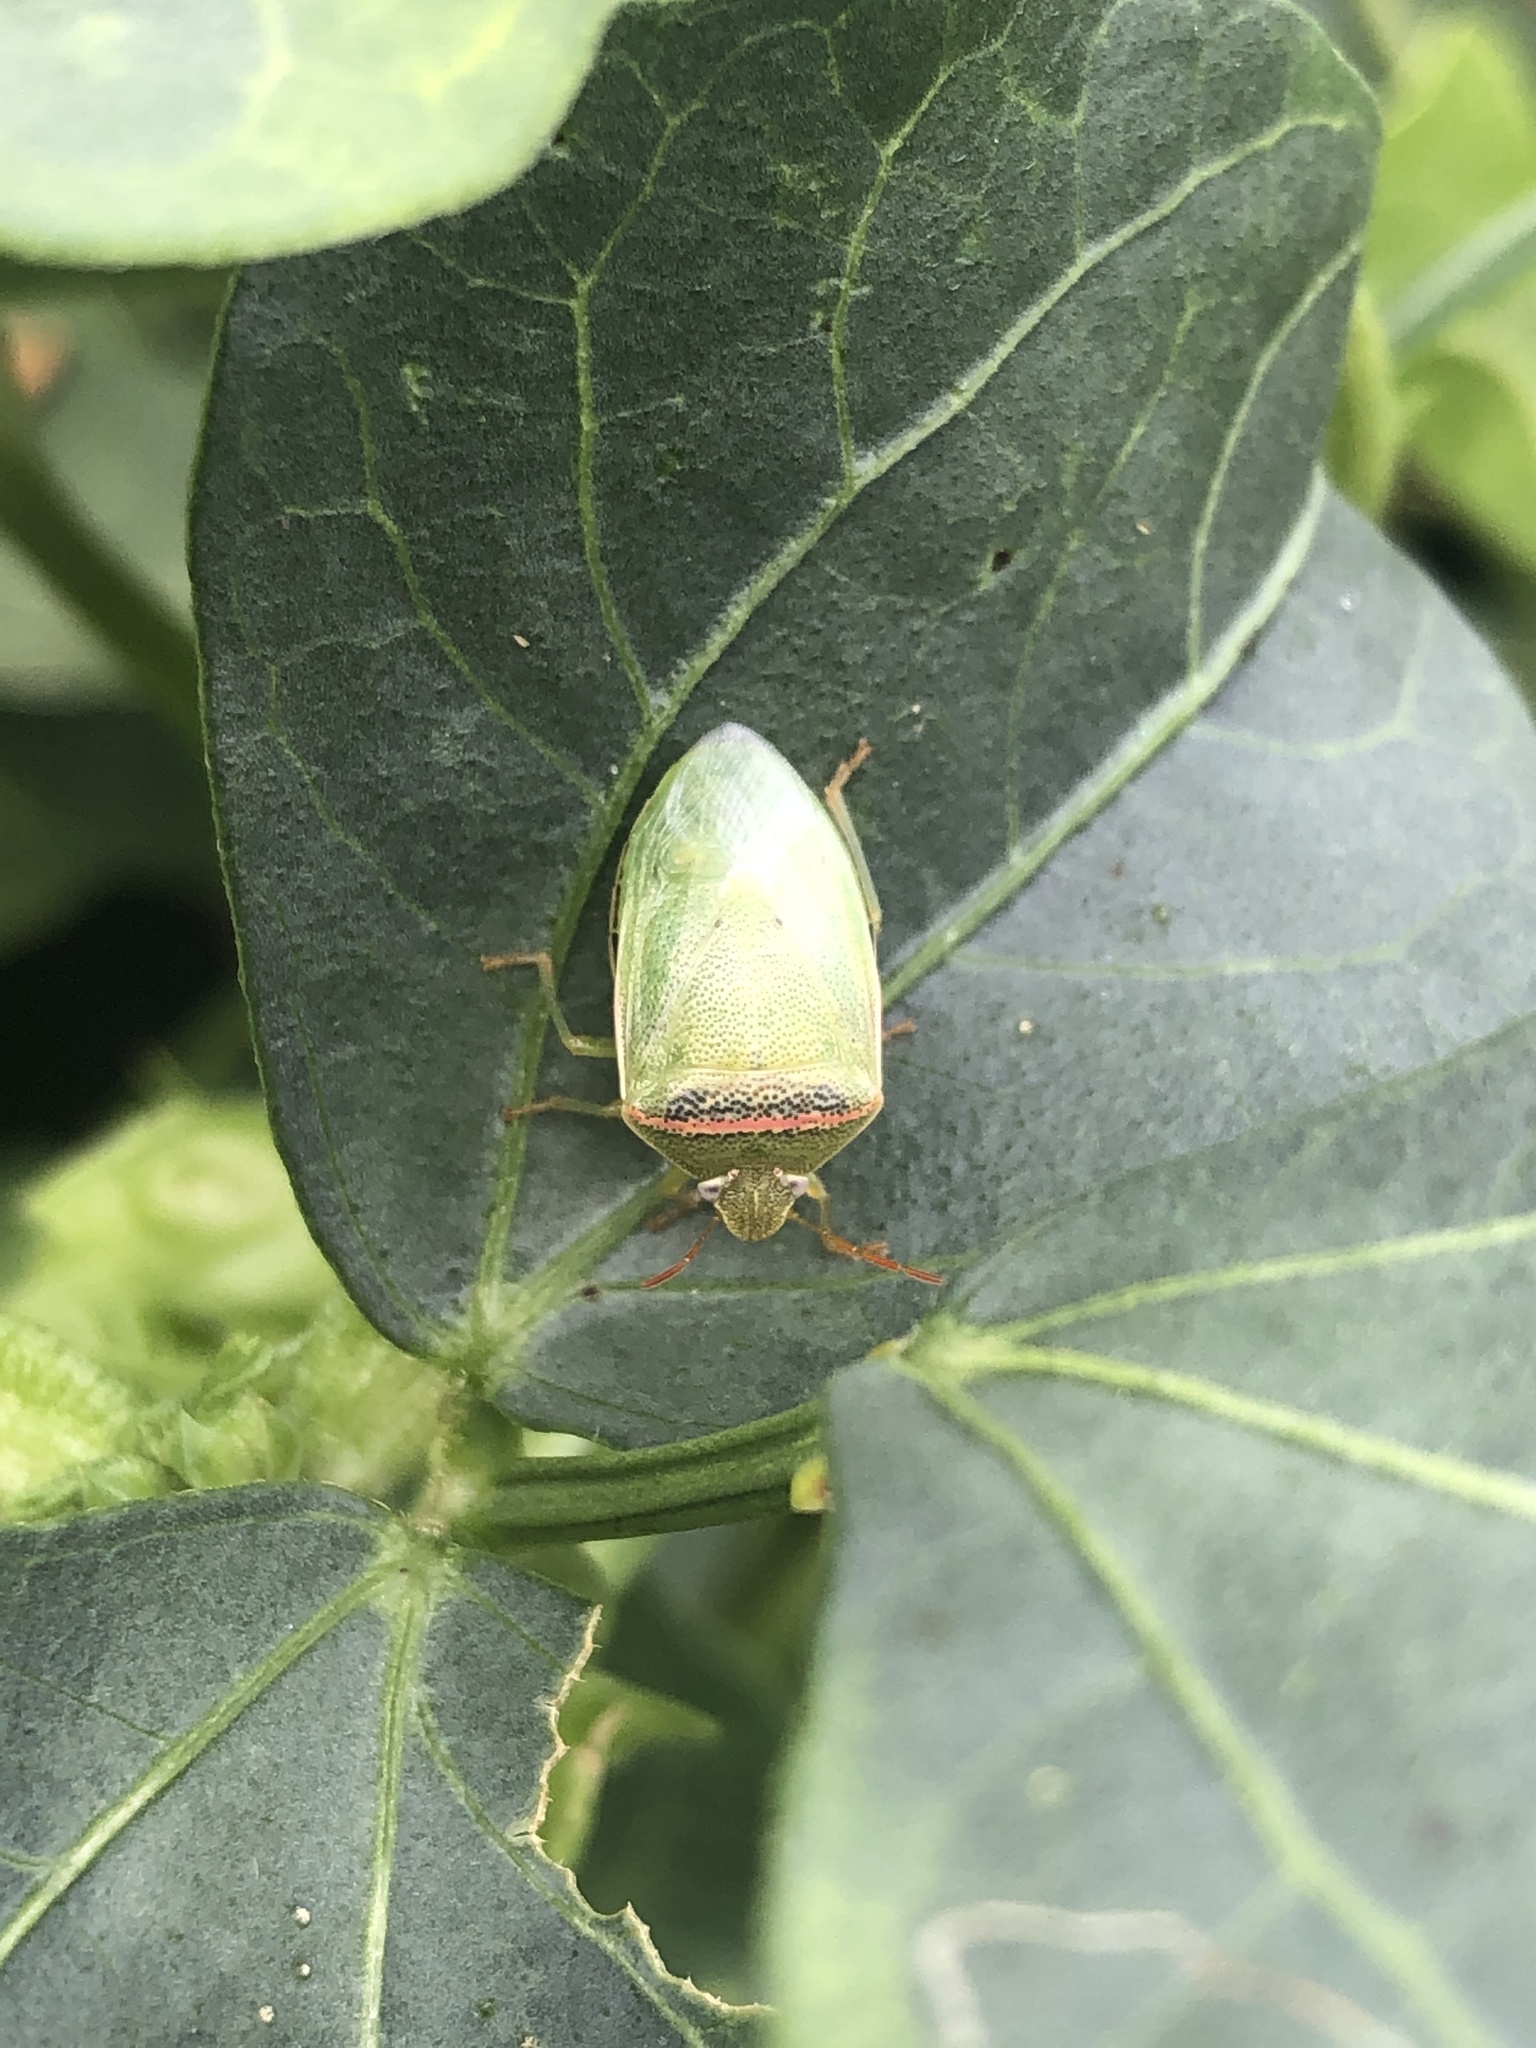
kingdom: Animalia
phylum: Arthropoda
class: Insecta
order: Hemiptera
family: Pentatomidae
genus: Piezodorus
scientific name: Piezodorus guildinii
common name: Redbanded stink bug
